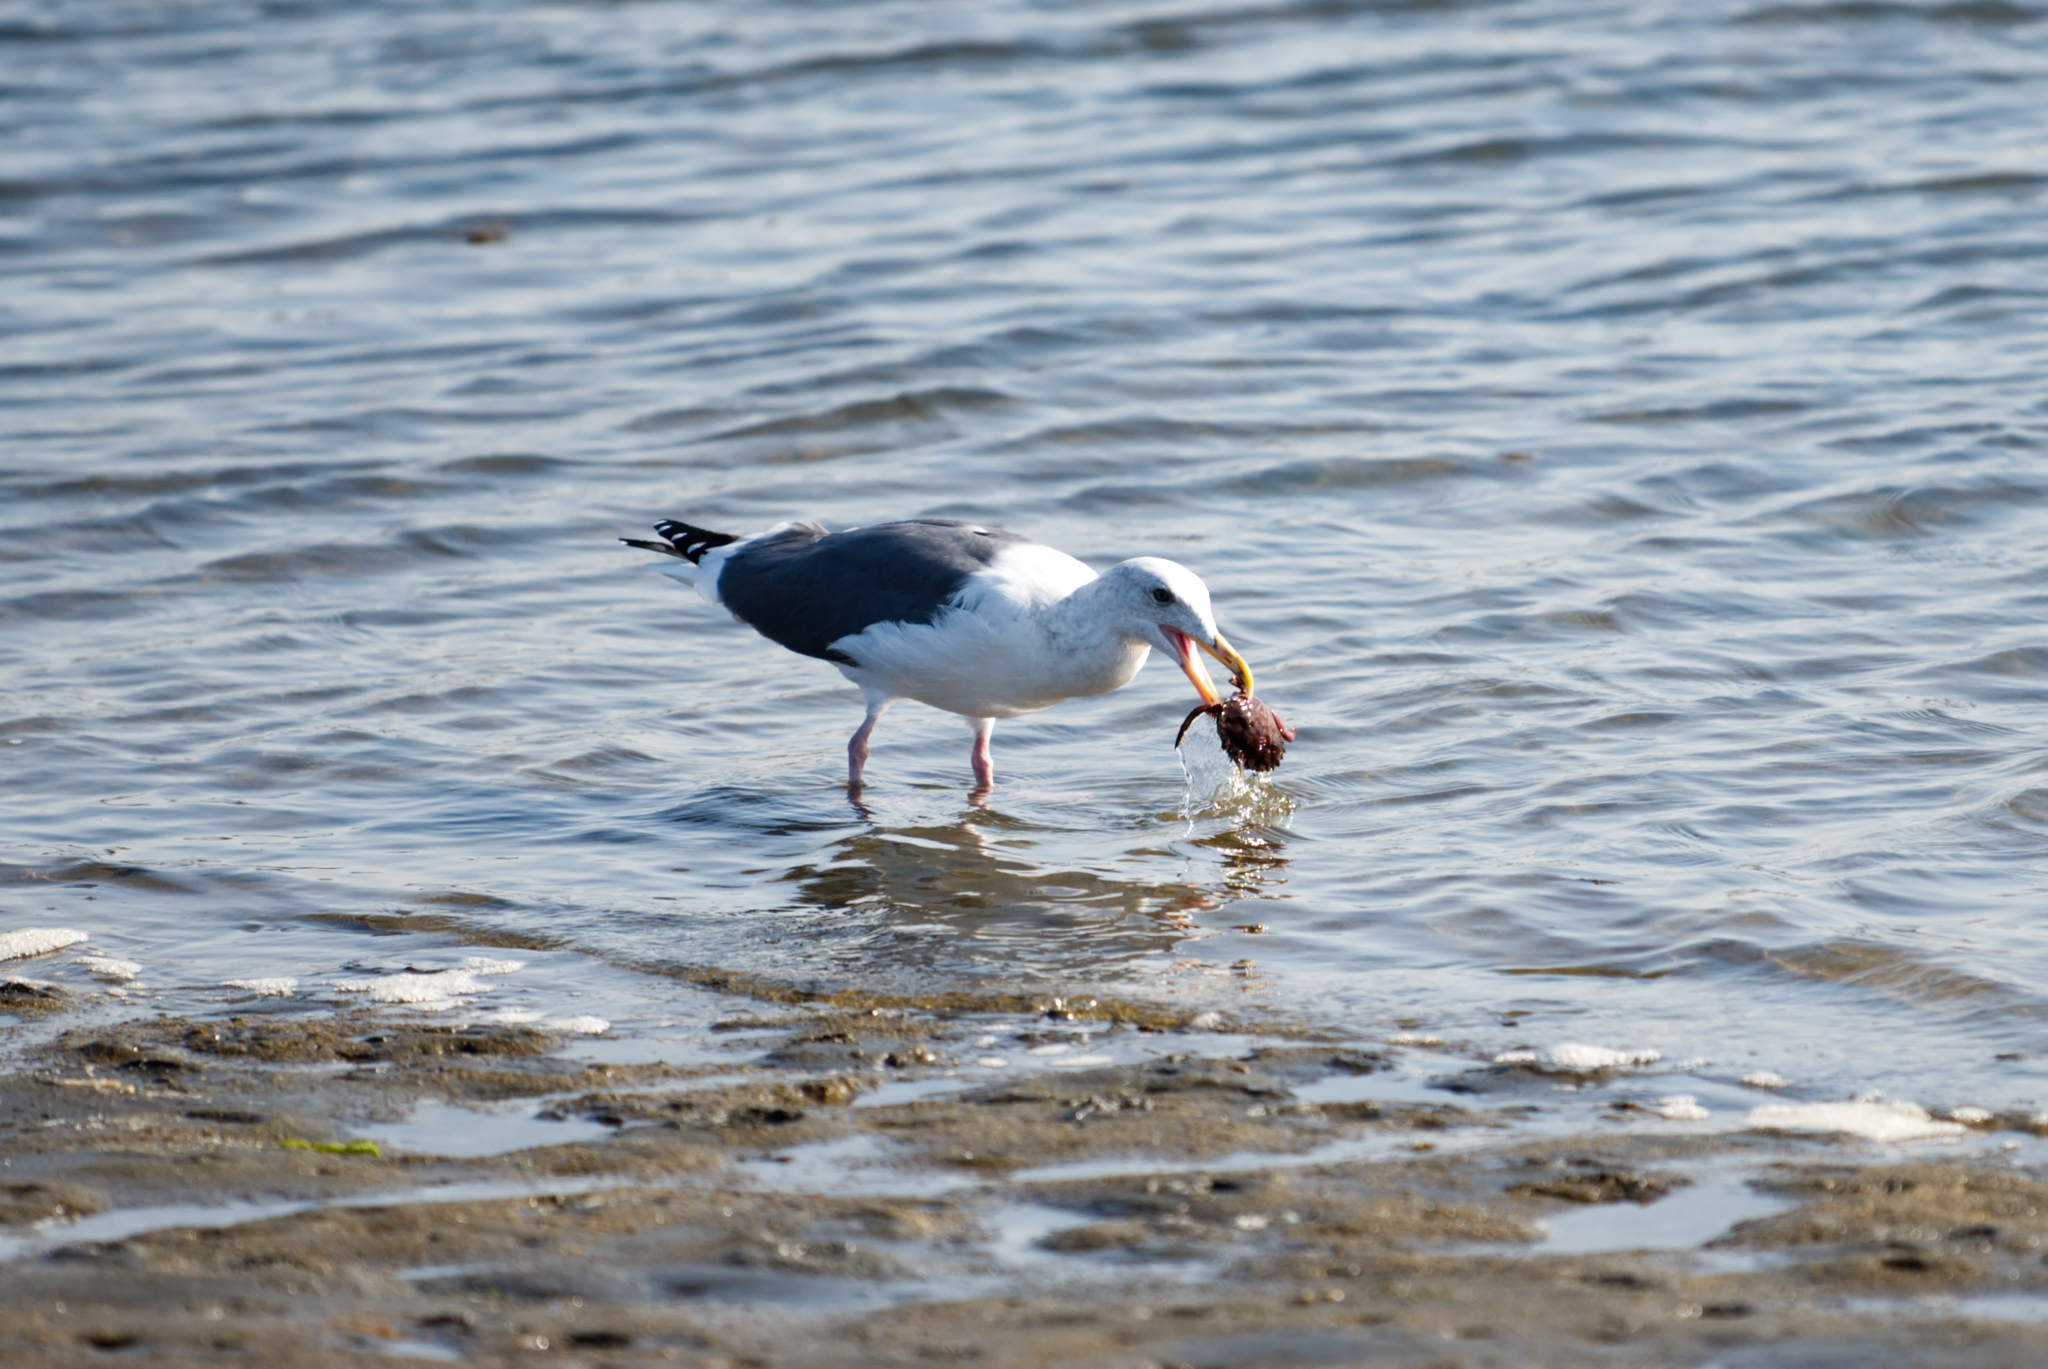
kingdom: Animalia
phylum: Chordata
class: Aves
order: Charadriiformes
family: Laridae
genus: Larus
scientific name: Larus occidentalis
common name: Western gull
